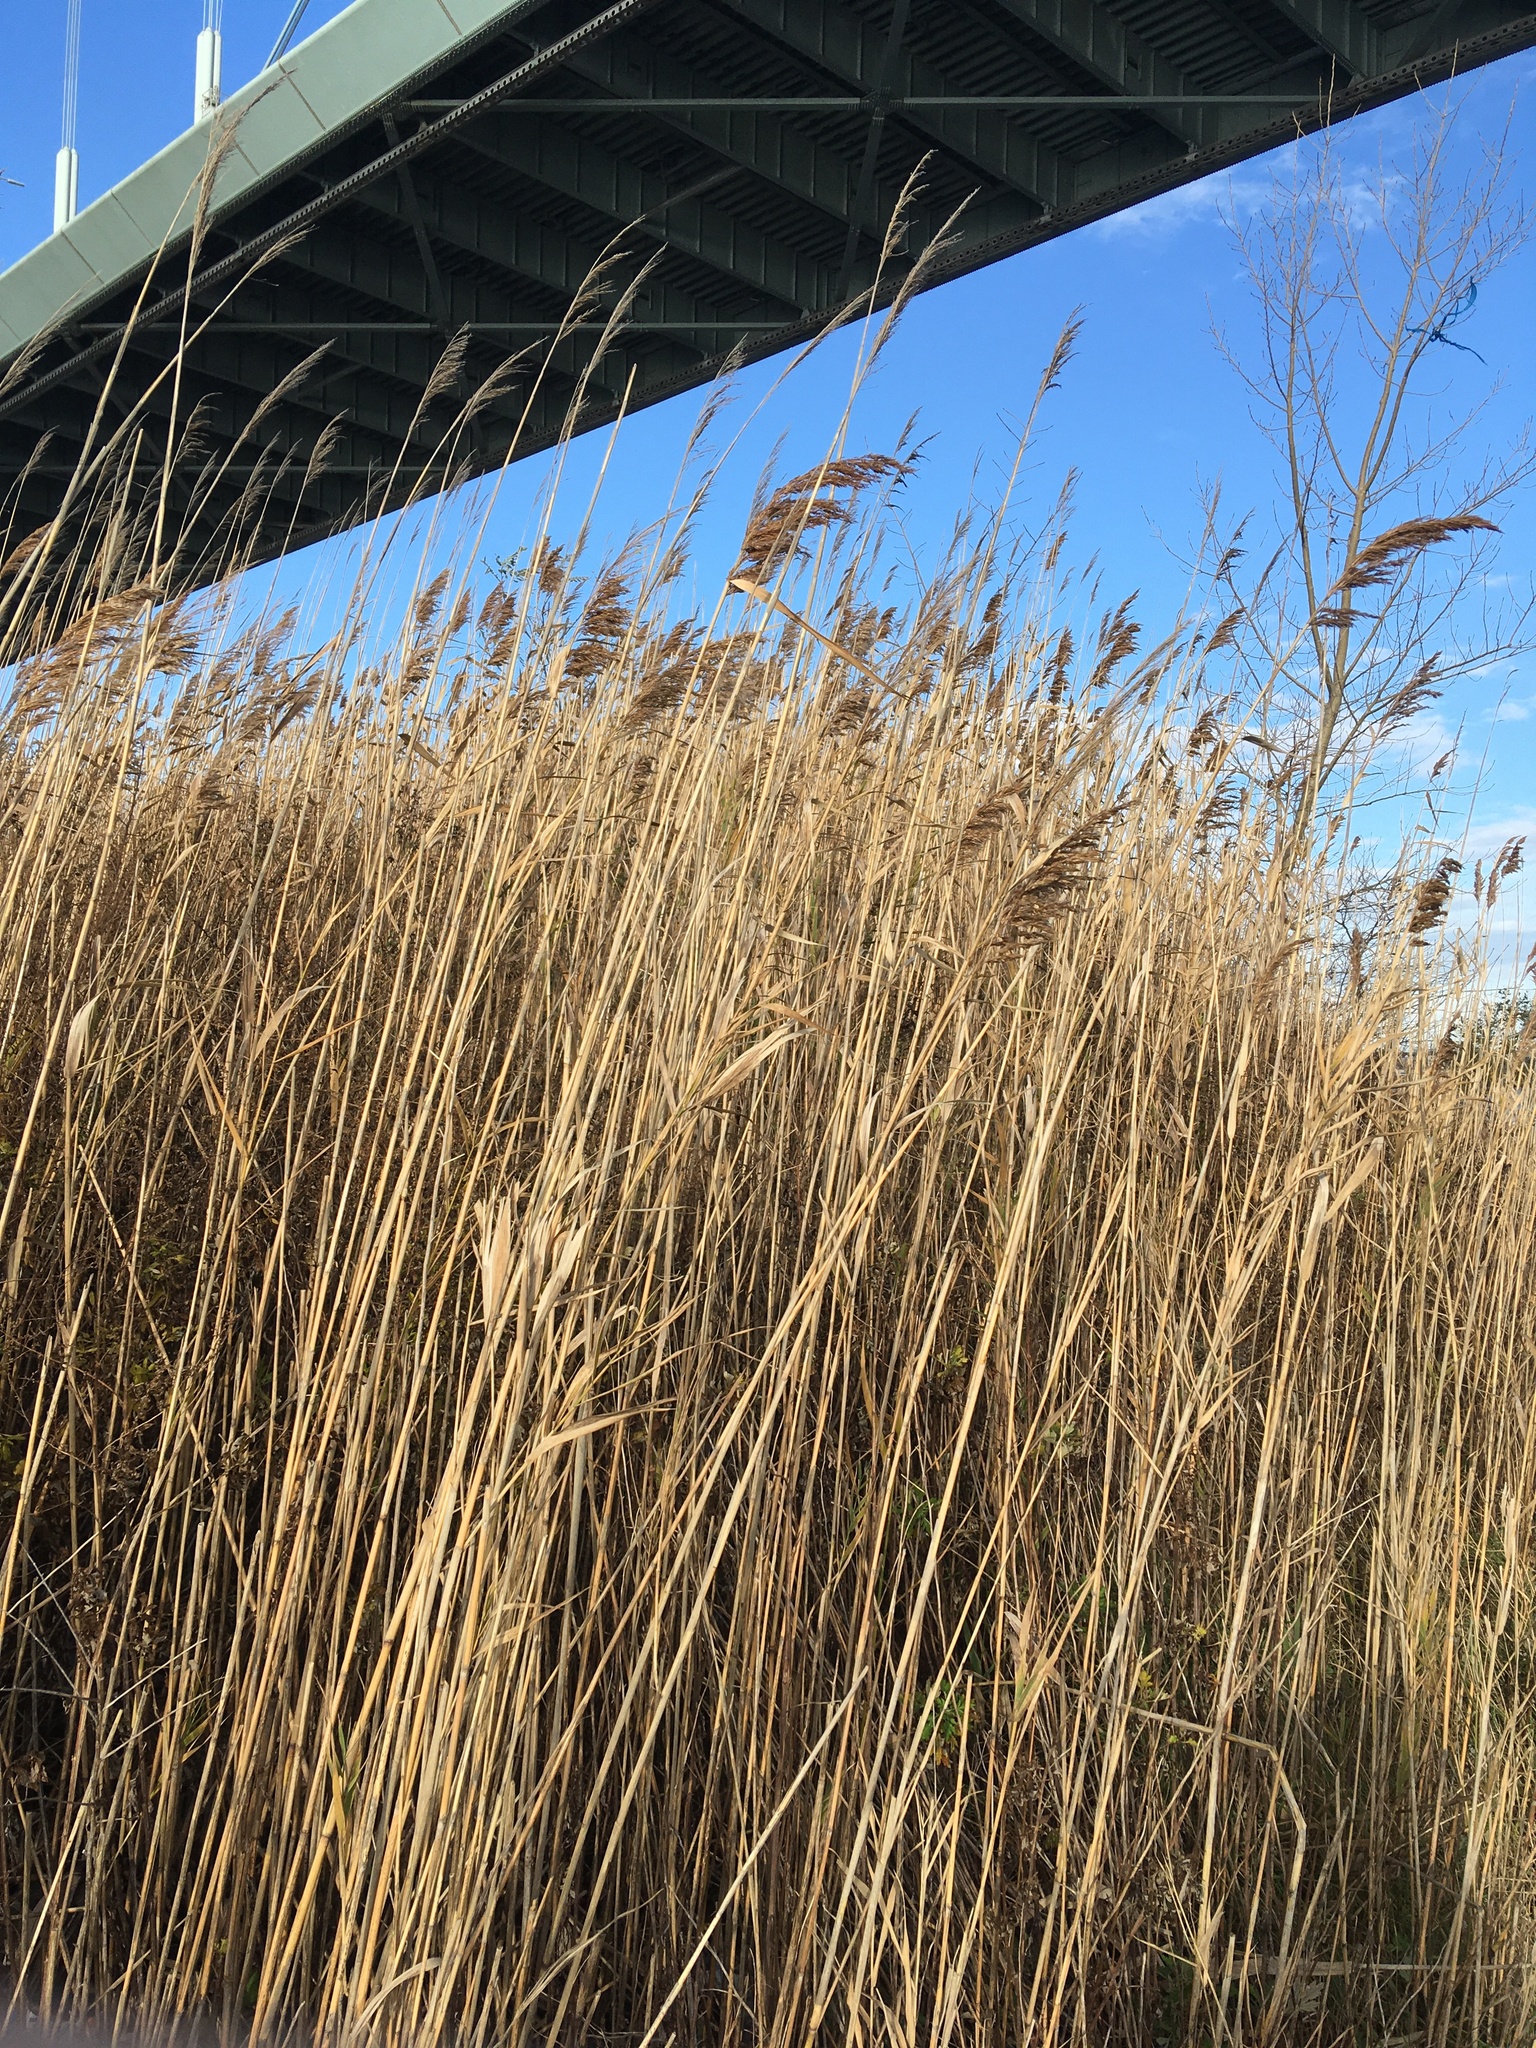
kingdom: Plantae
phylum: Tracheophyta
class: Liliopsida
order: Poales
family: Poaceae
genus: Phragmites
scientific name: Phragmites australis
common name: Common reed
